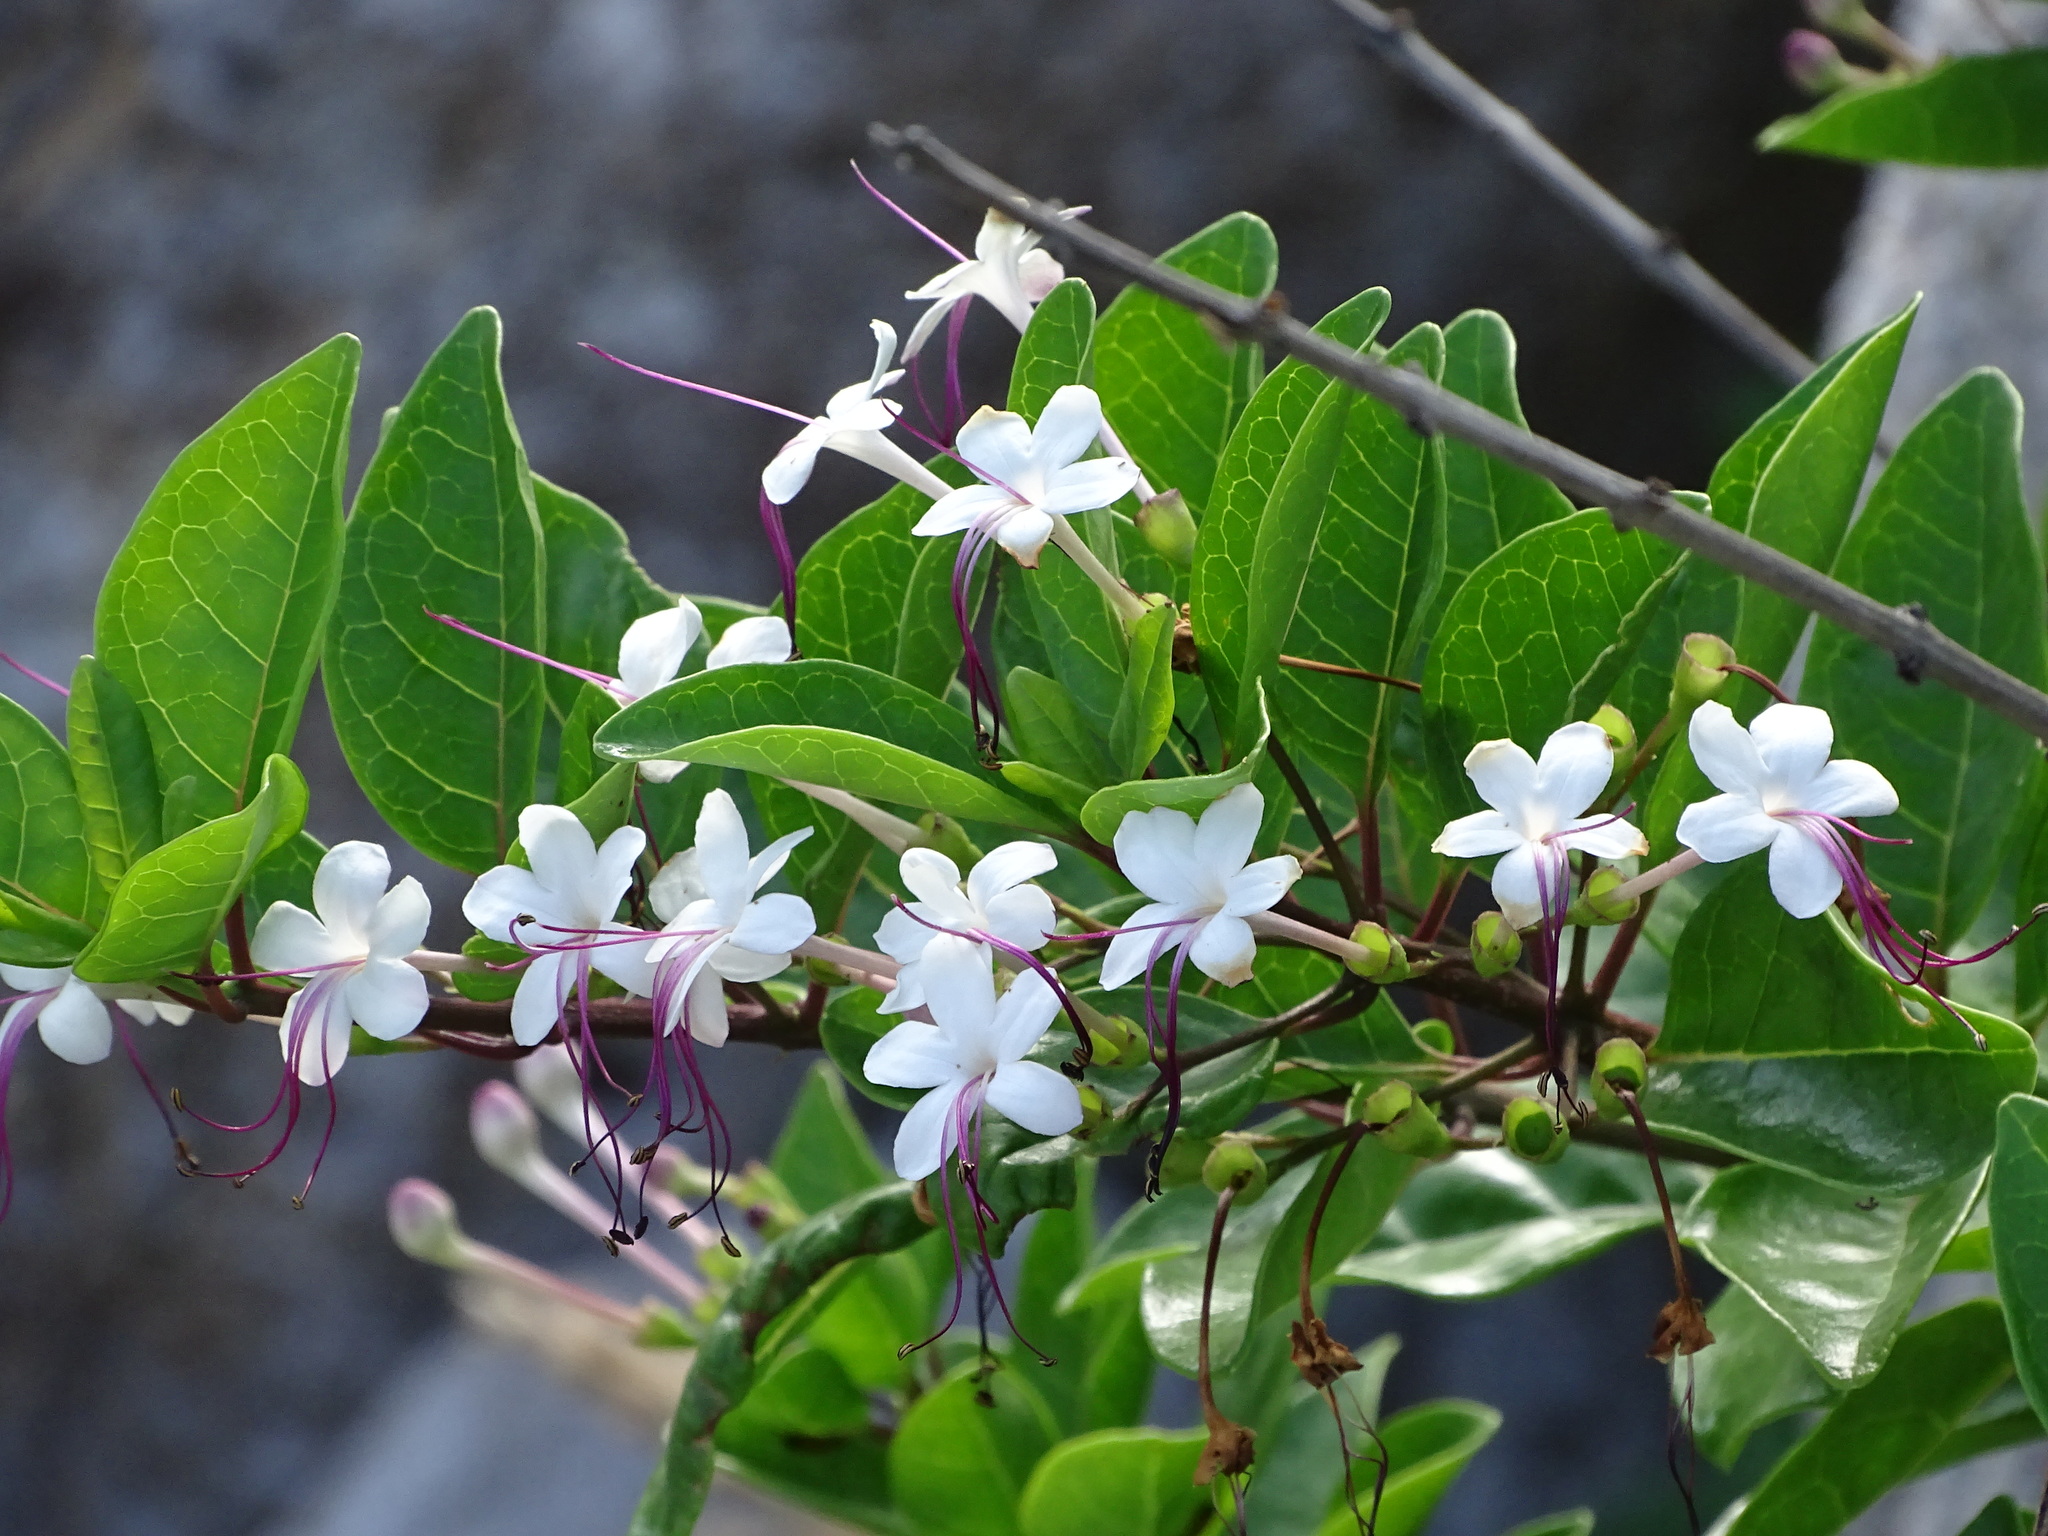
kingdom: Plantae
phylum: Tracheophyta
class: Magnoliopsida
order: Lamiales
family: Lamiaceae
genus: Volkameria
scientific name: Volkameria inermis
